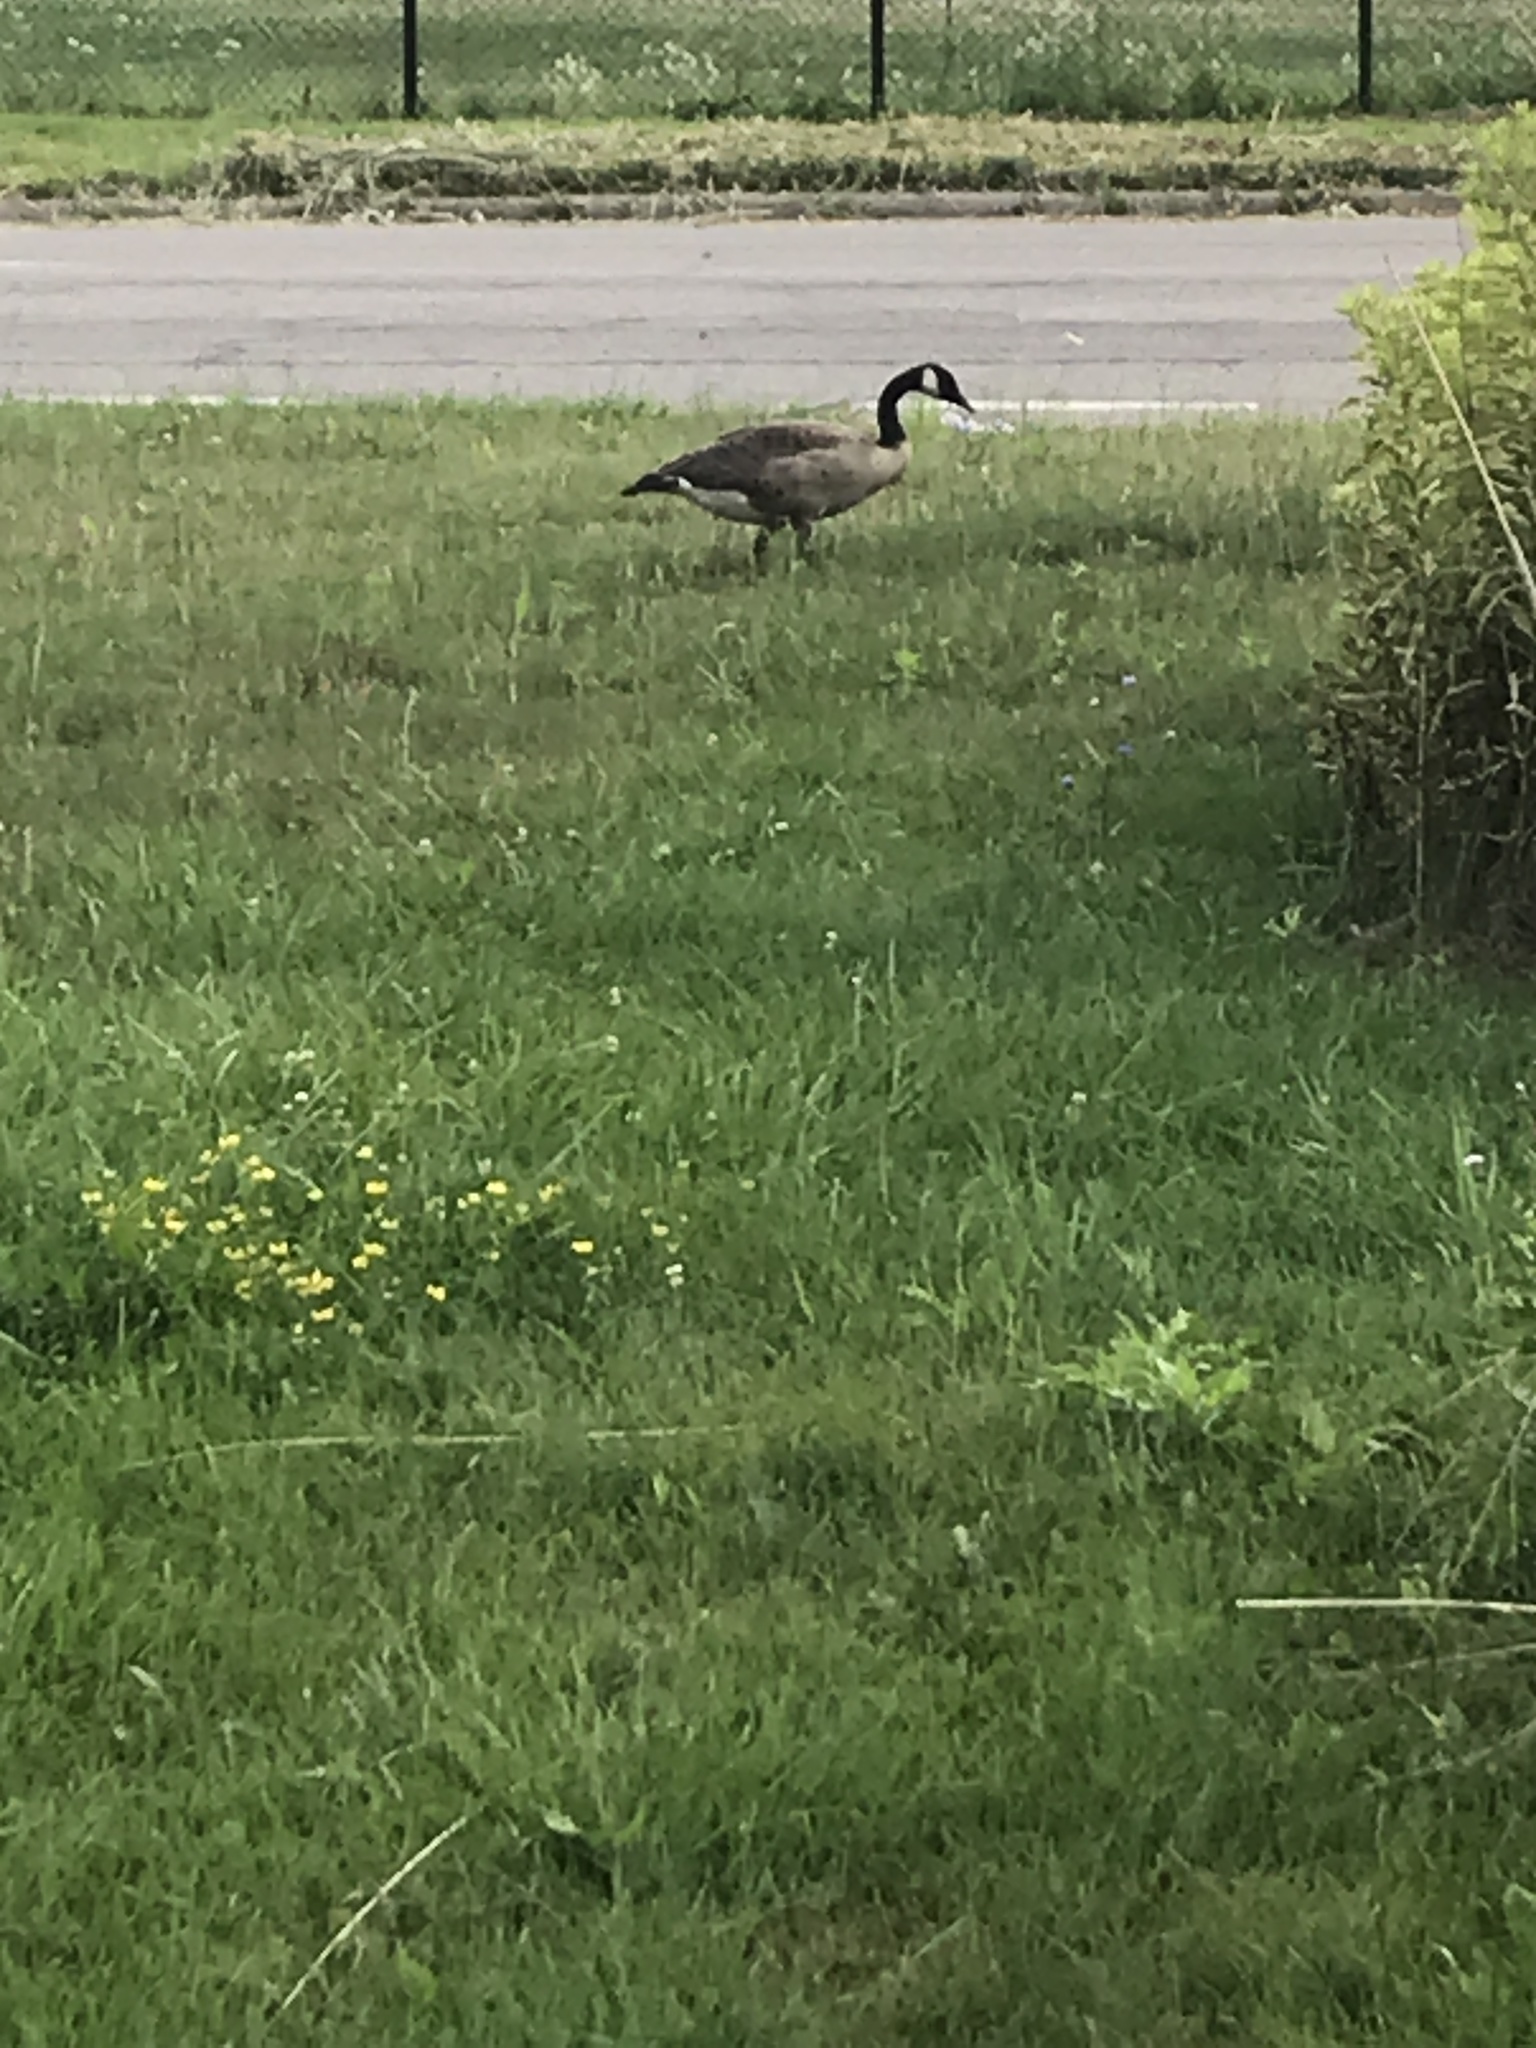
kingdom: Animalia
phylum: Chordata
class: Aves
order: Anseriformes
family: Anatidae
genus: Branta
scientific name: Branta canadensis
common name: Canada goose
